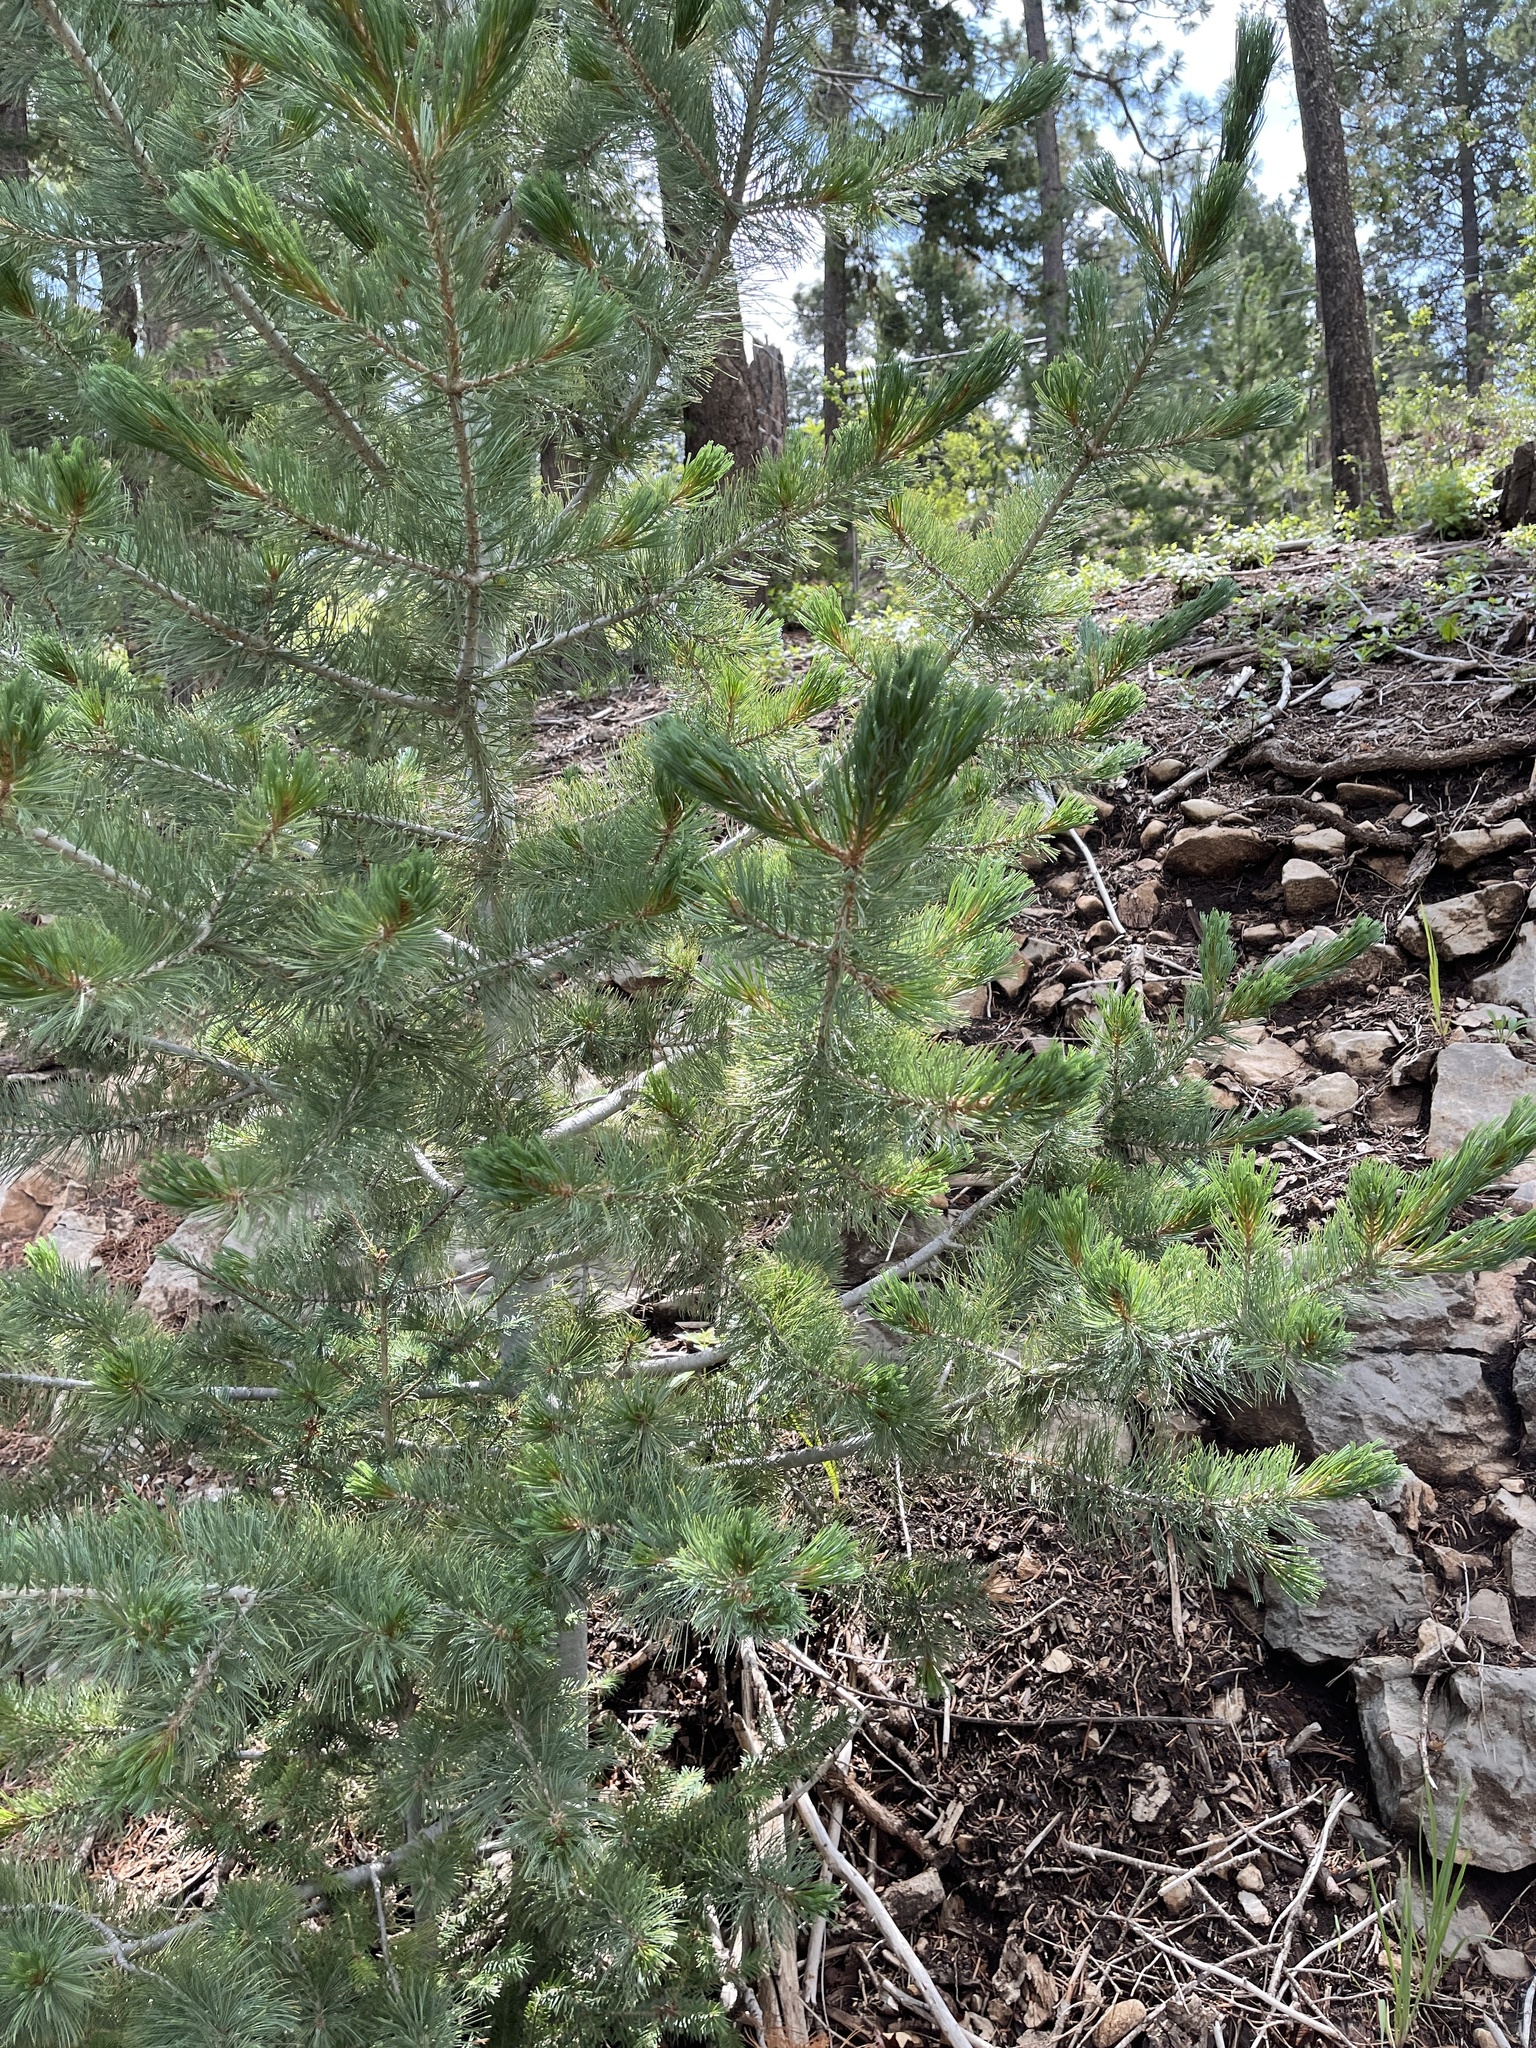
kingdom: Plantae
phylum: Tracheophyta
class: Pinopsida
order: Pinales
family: Pinaceae
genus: Pinus
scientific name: Pinus strobiformis
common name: Southwestern white pine
